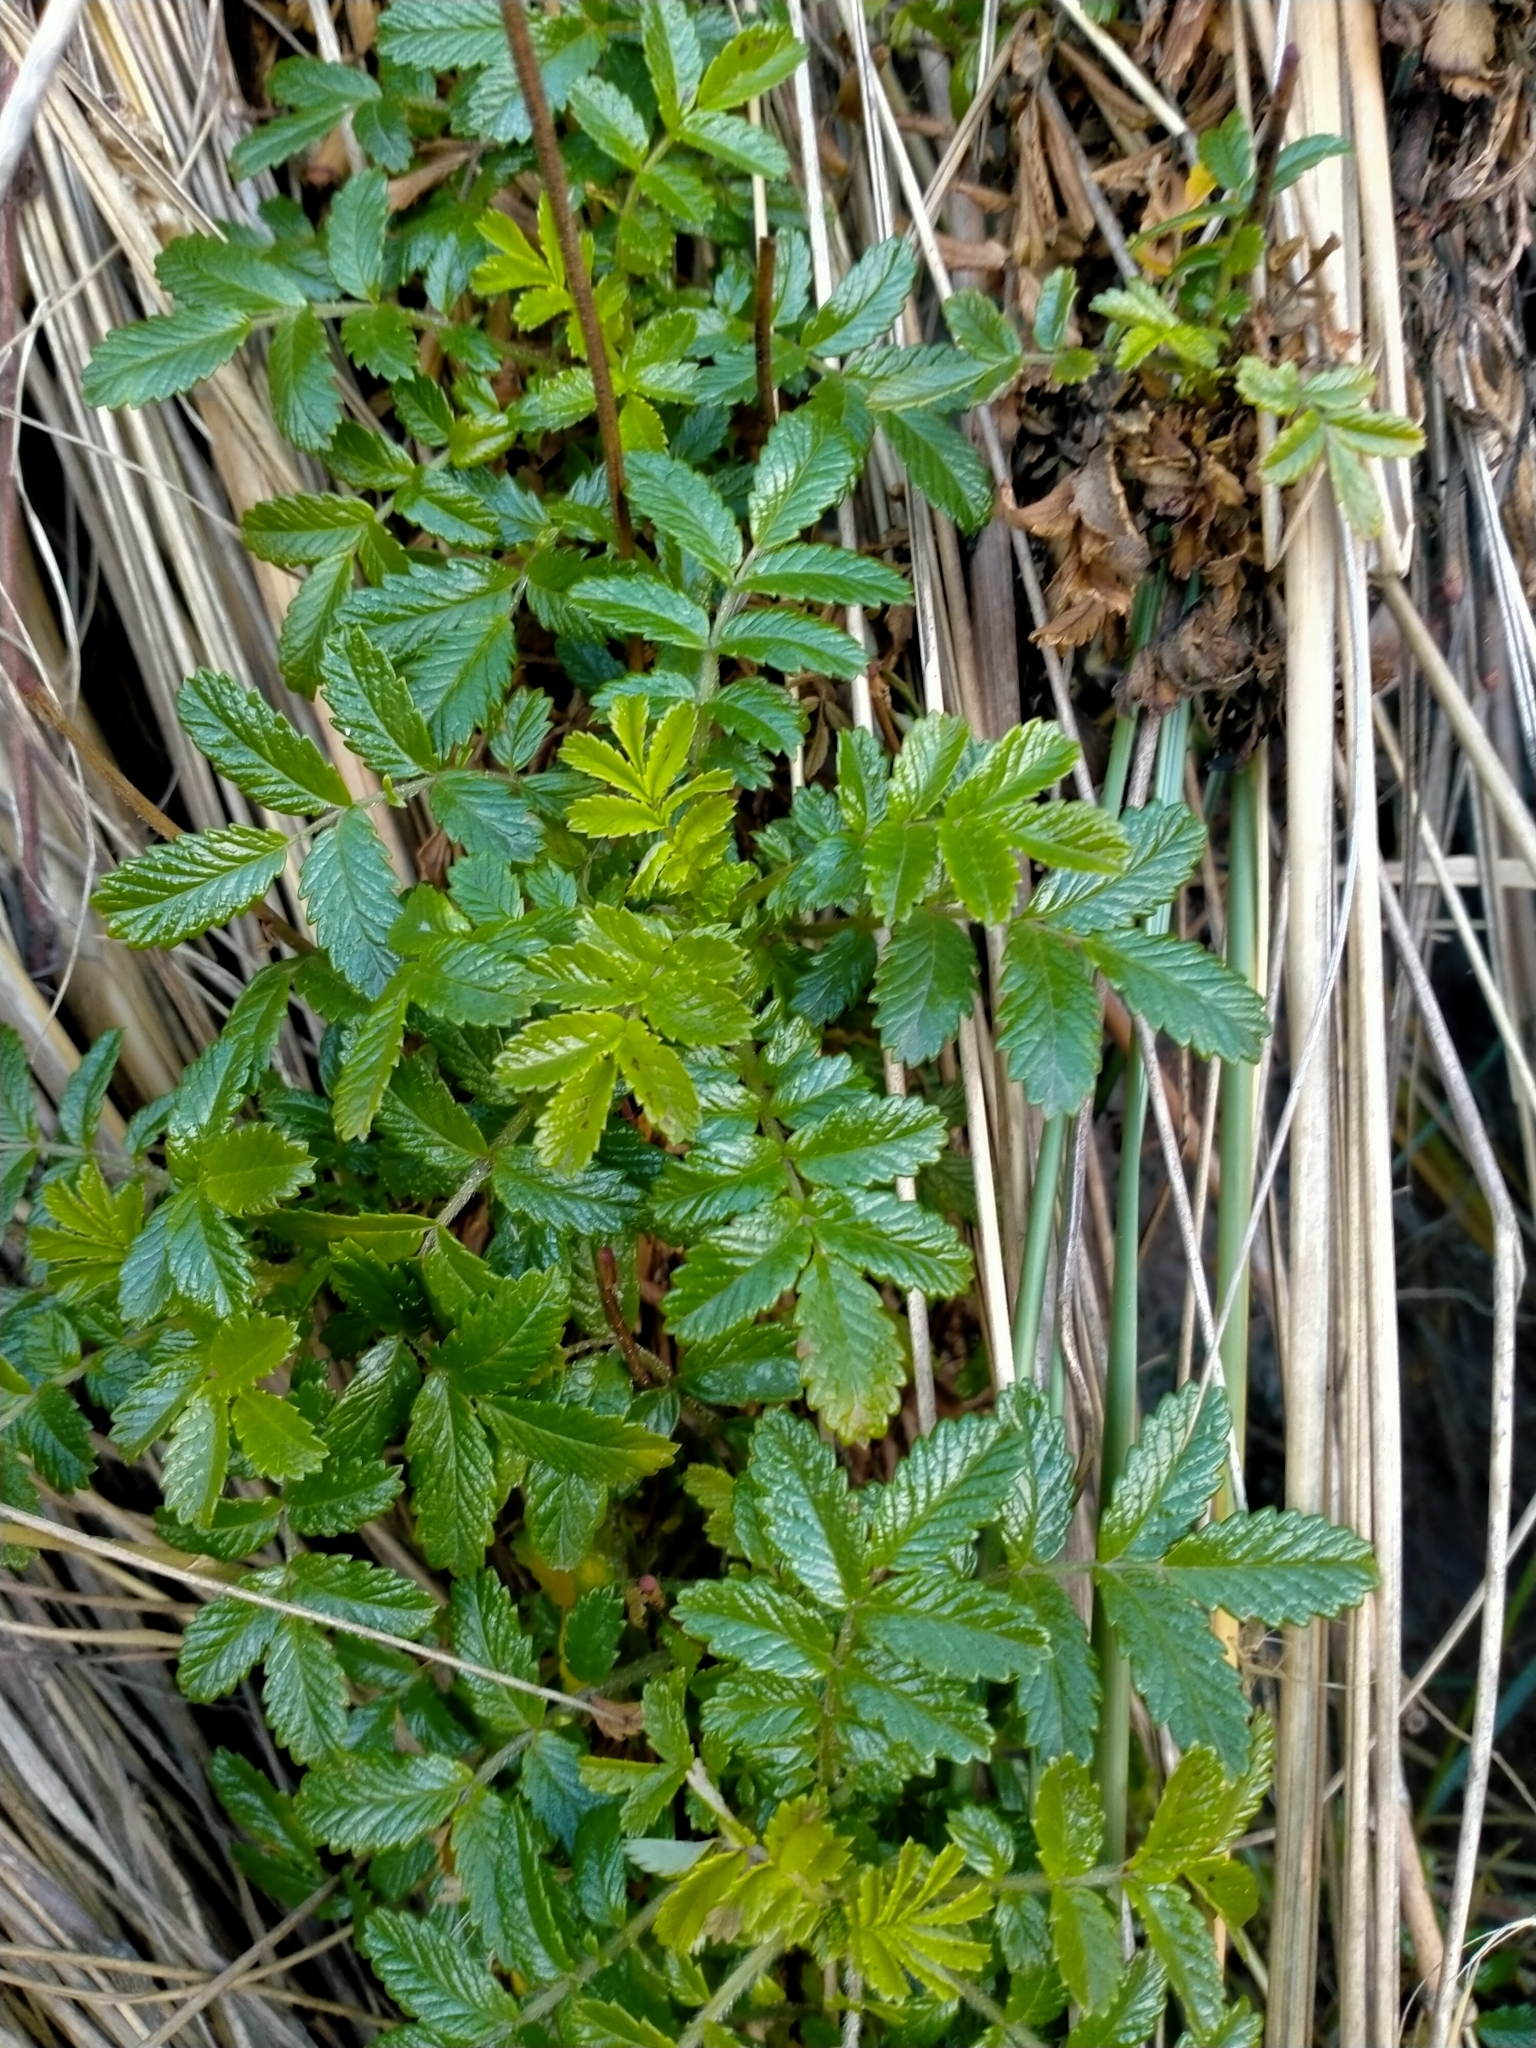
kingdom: Plantae
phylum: Tracheophyta
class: Magnoliopsida
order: Rosales
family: Rosaceae
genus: Acaena
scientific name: Acaena pallida
